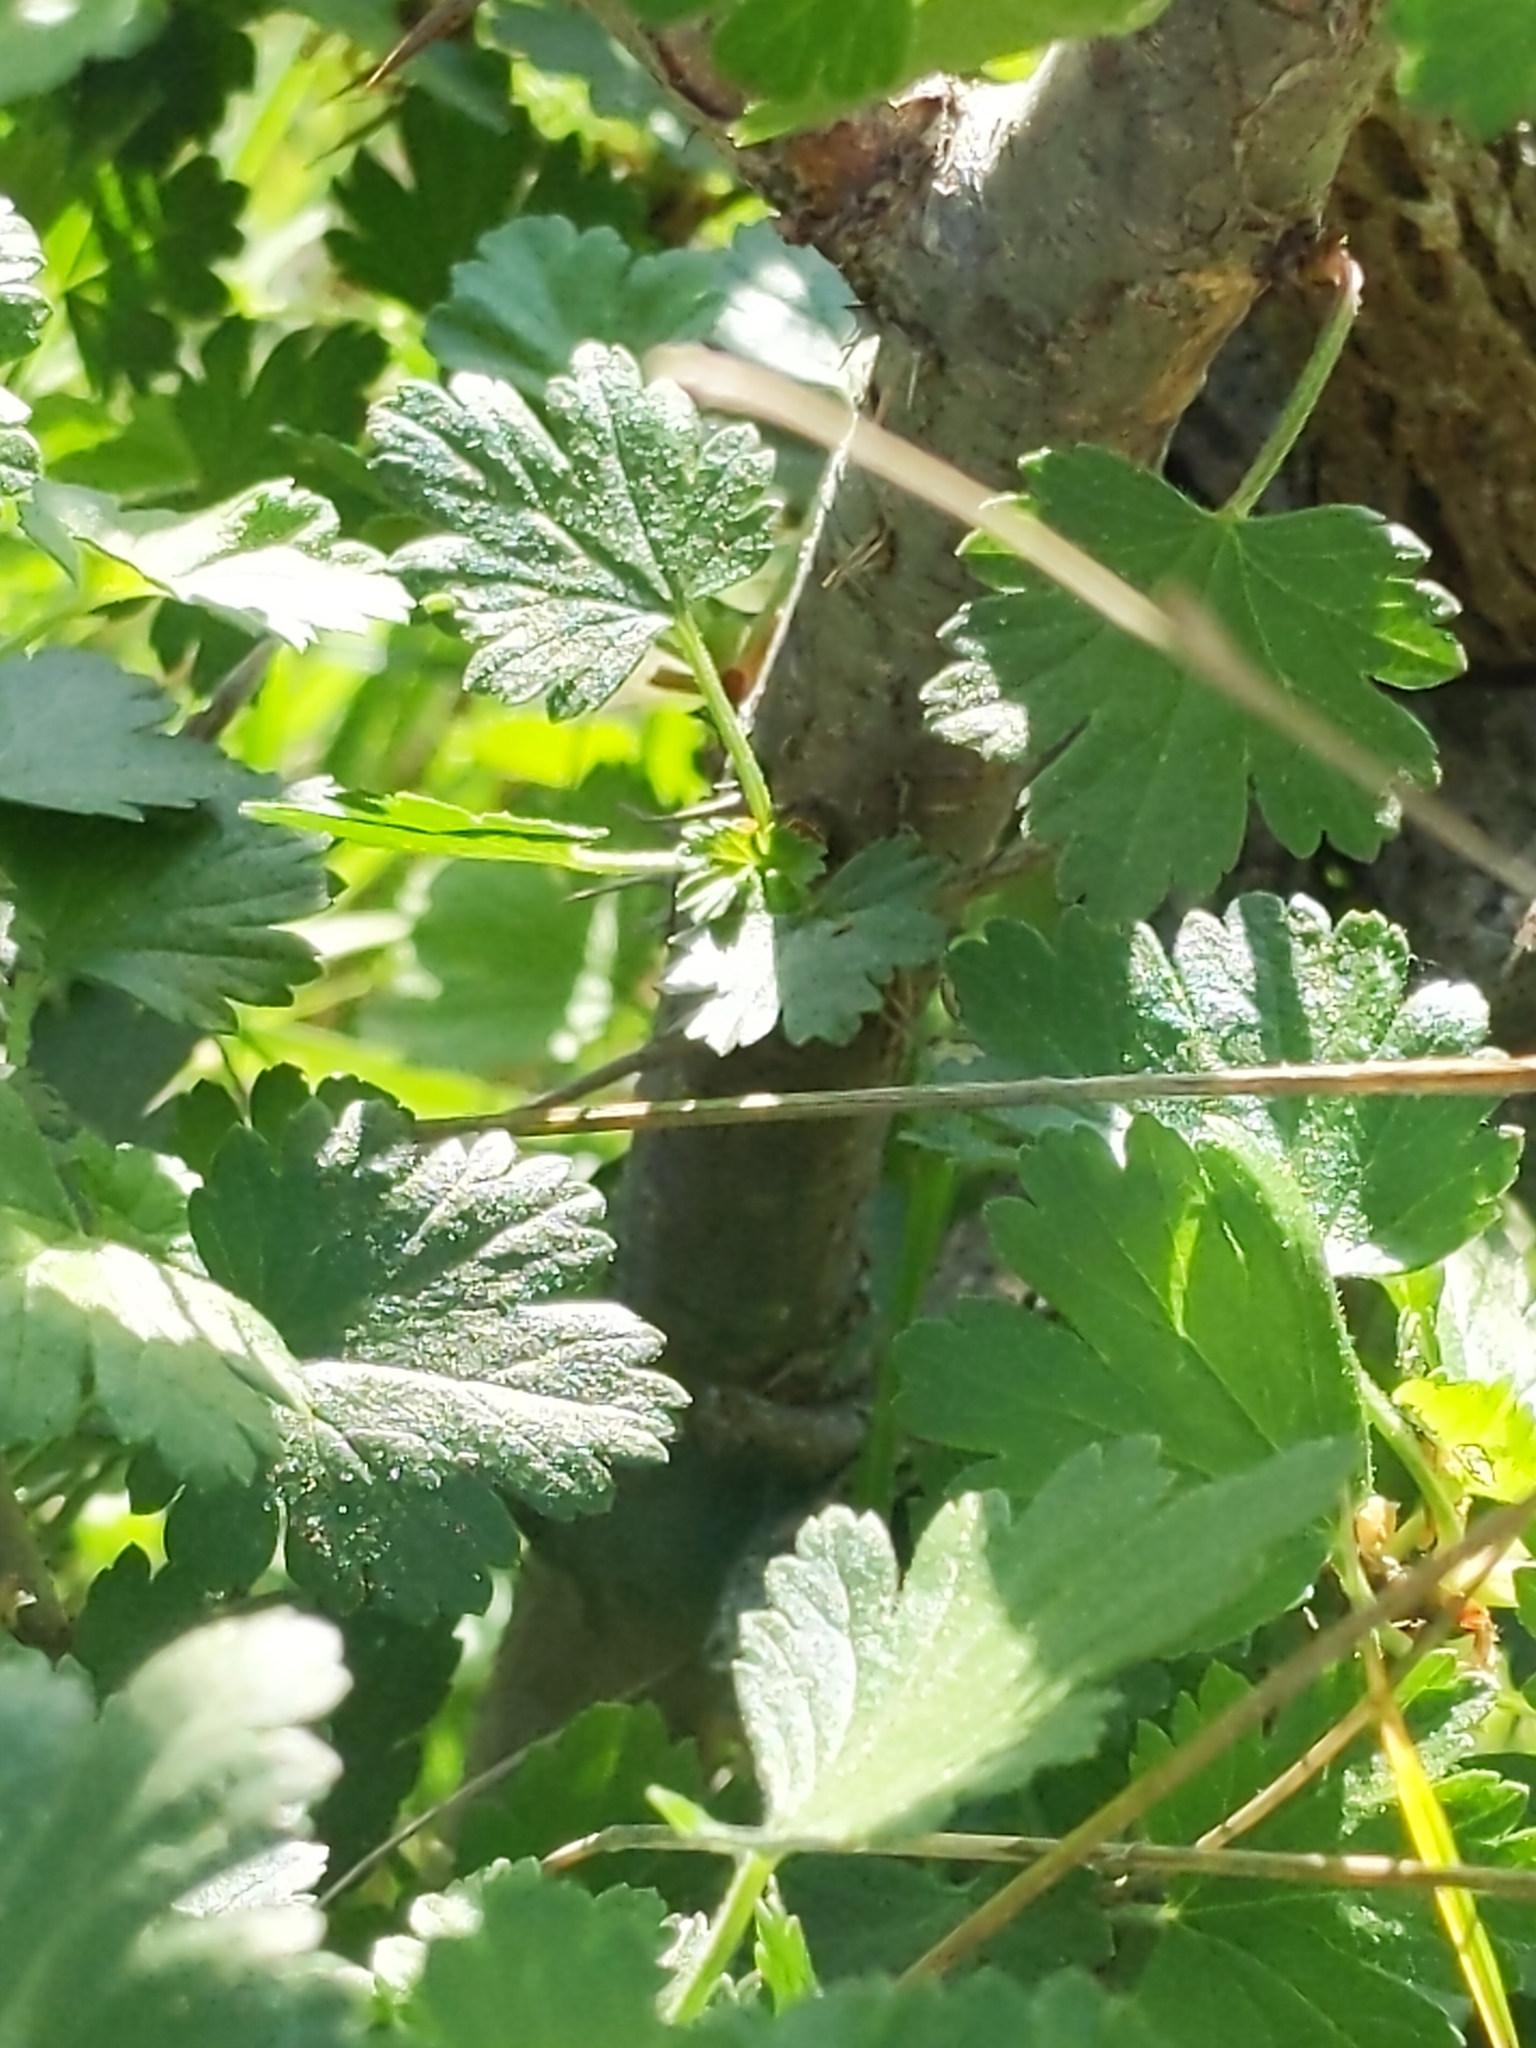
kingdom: Plantae
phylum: Tracheophyta
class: Magnoliopsida
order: Saxifragales
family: Grossulariaceae
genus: Ribes
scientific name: Ribes californicum
